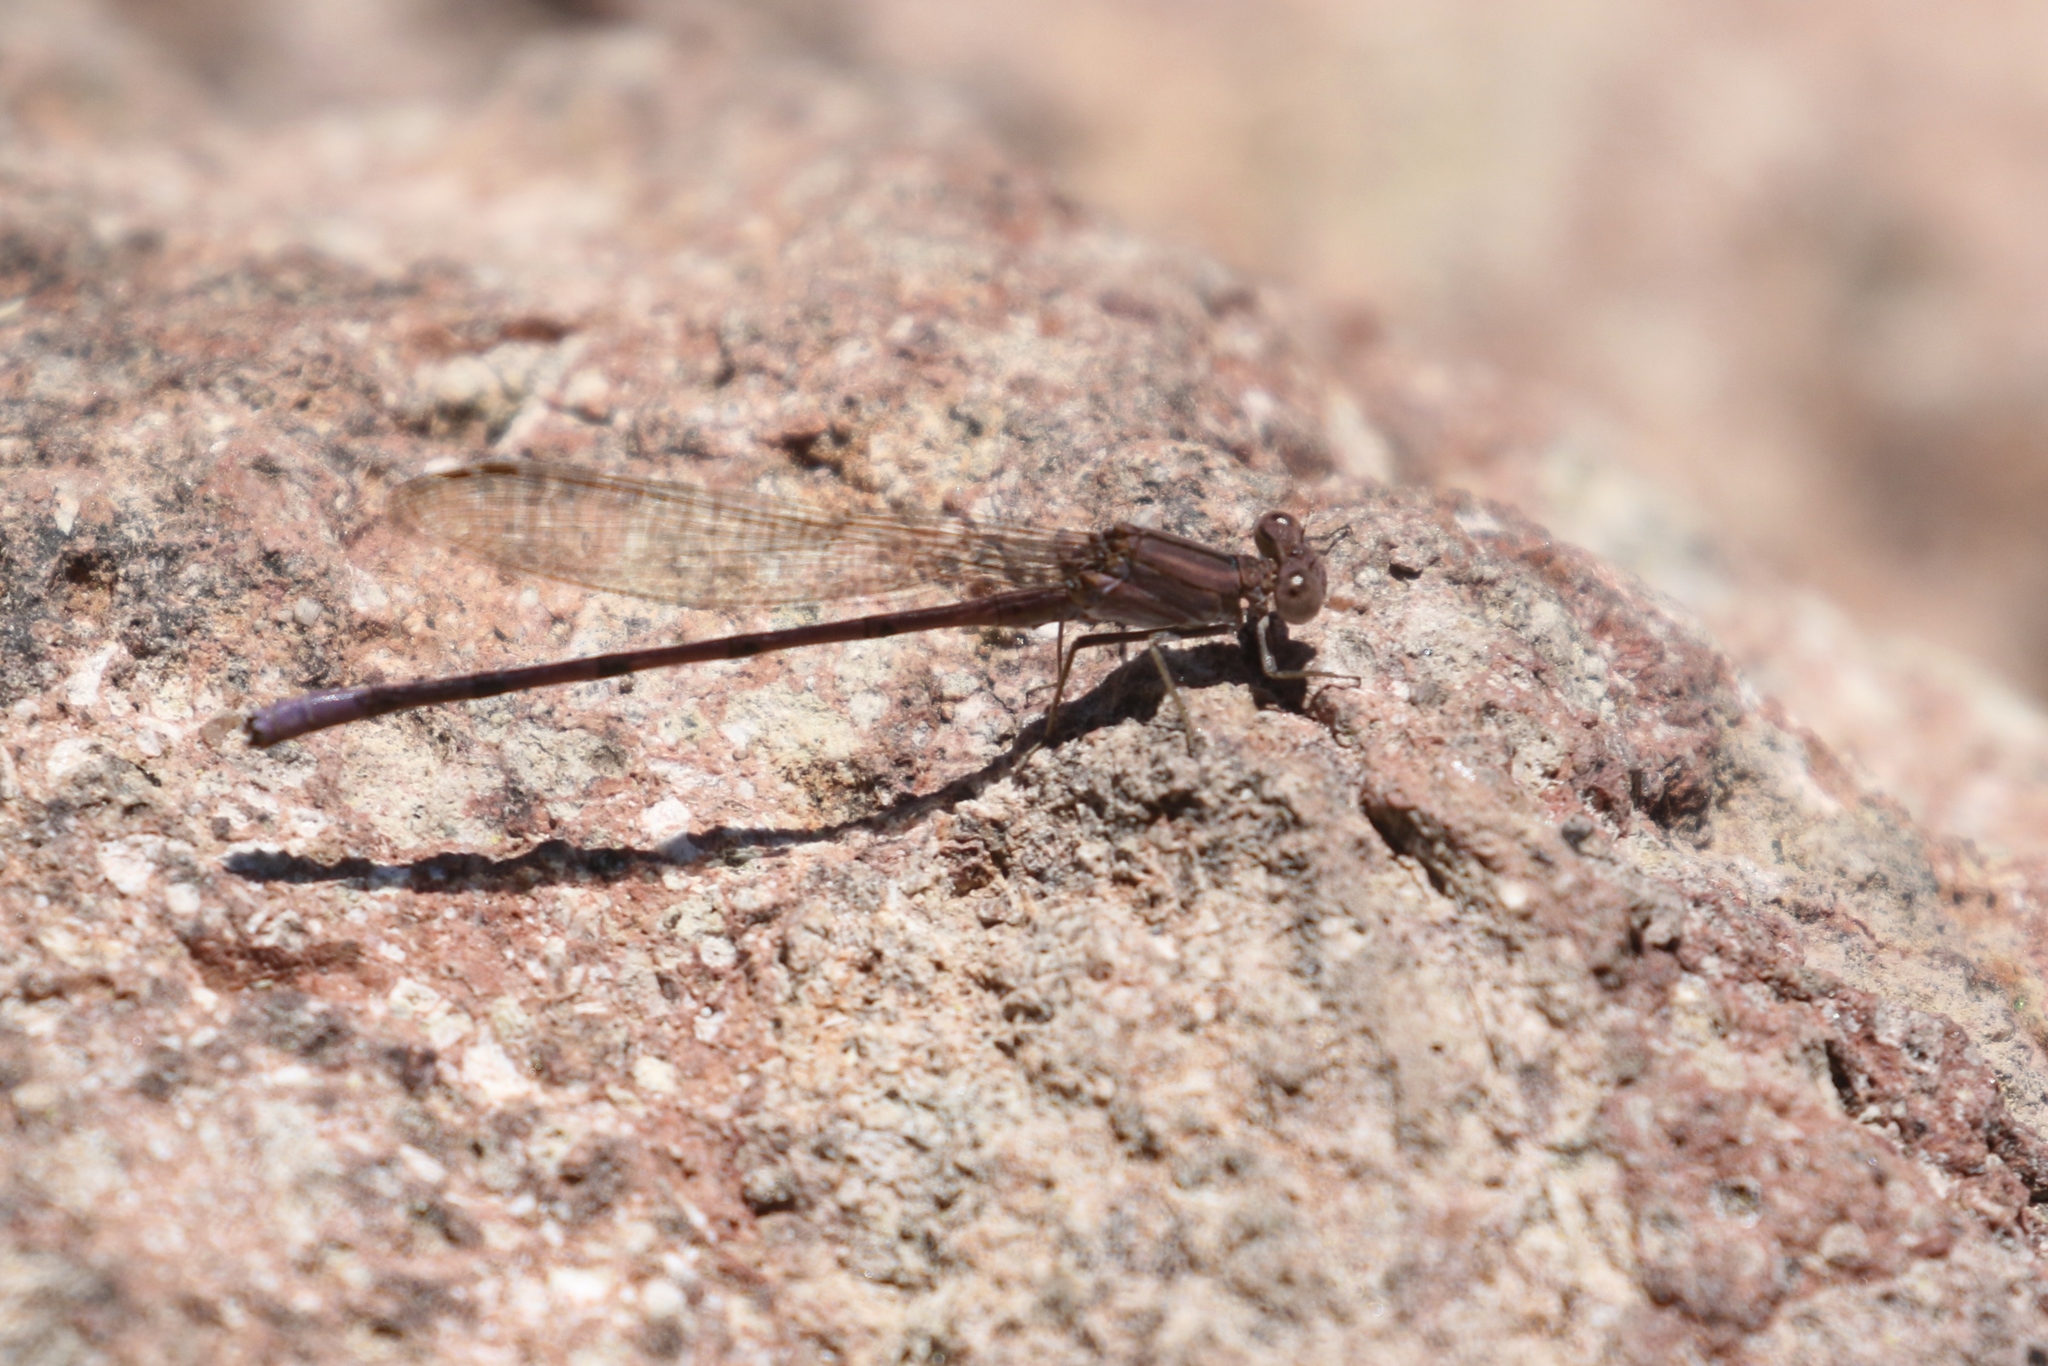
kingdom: Animalia
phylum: Arthropoda
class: Insecta
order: Odonata
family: Coenagrionidae
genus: Argia
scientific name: Argia pallens
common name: Amethyst dancer
